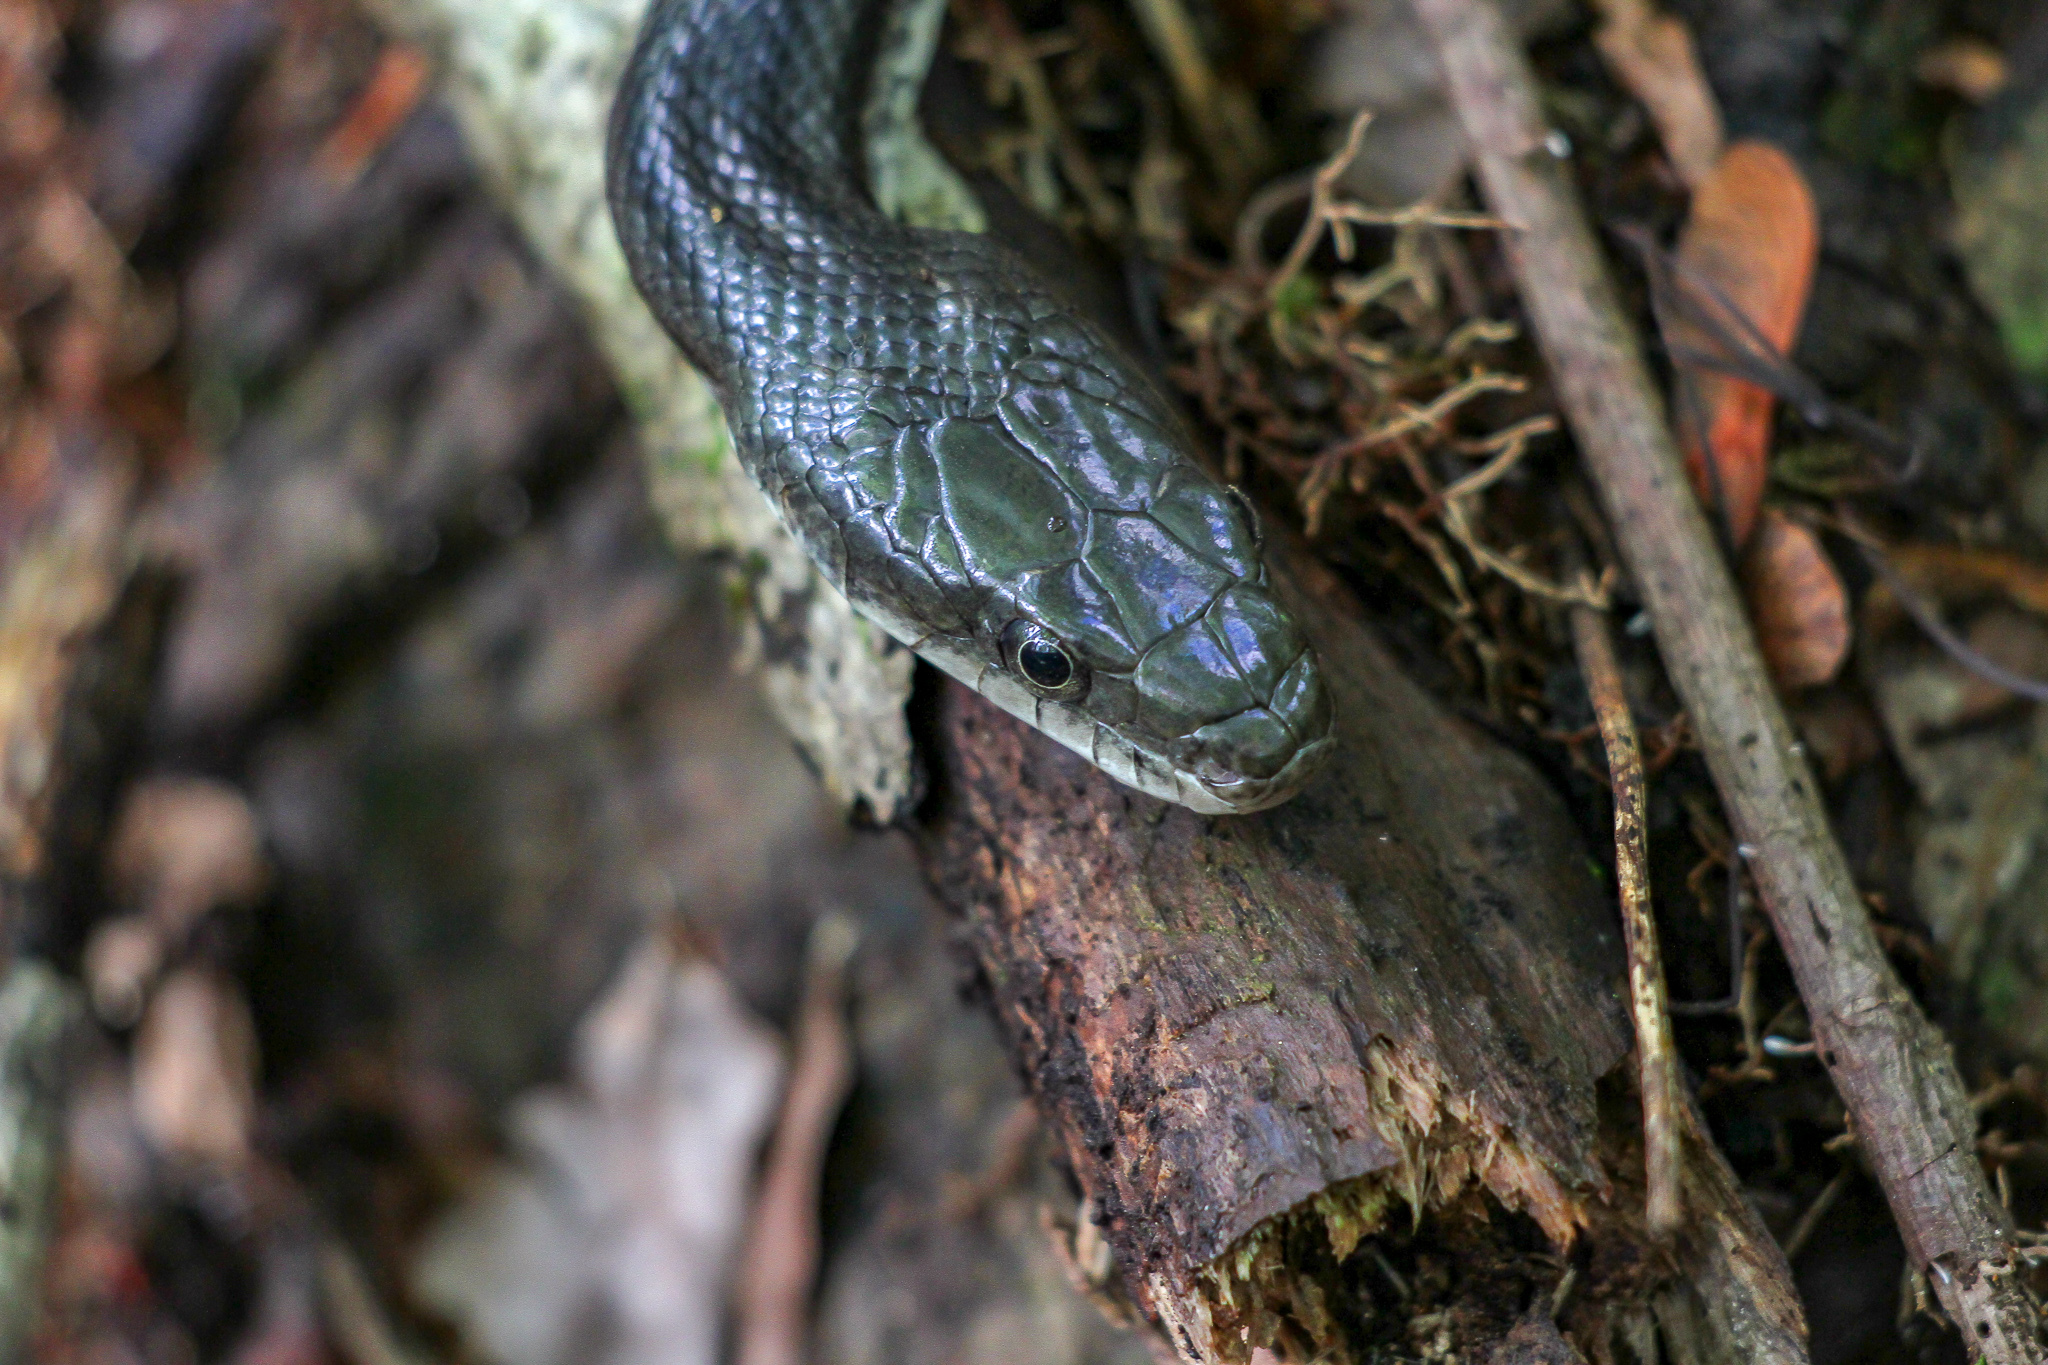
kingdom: Animalia
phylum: Chordata
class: Squamata
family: Colubridae
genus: Pantherophis
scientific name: Pantherophis alleghaniensis
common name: Eastern rat snake
